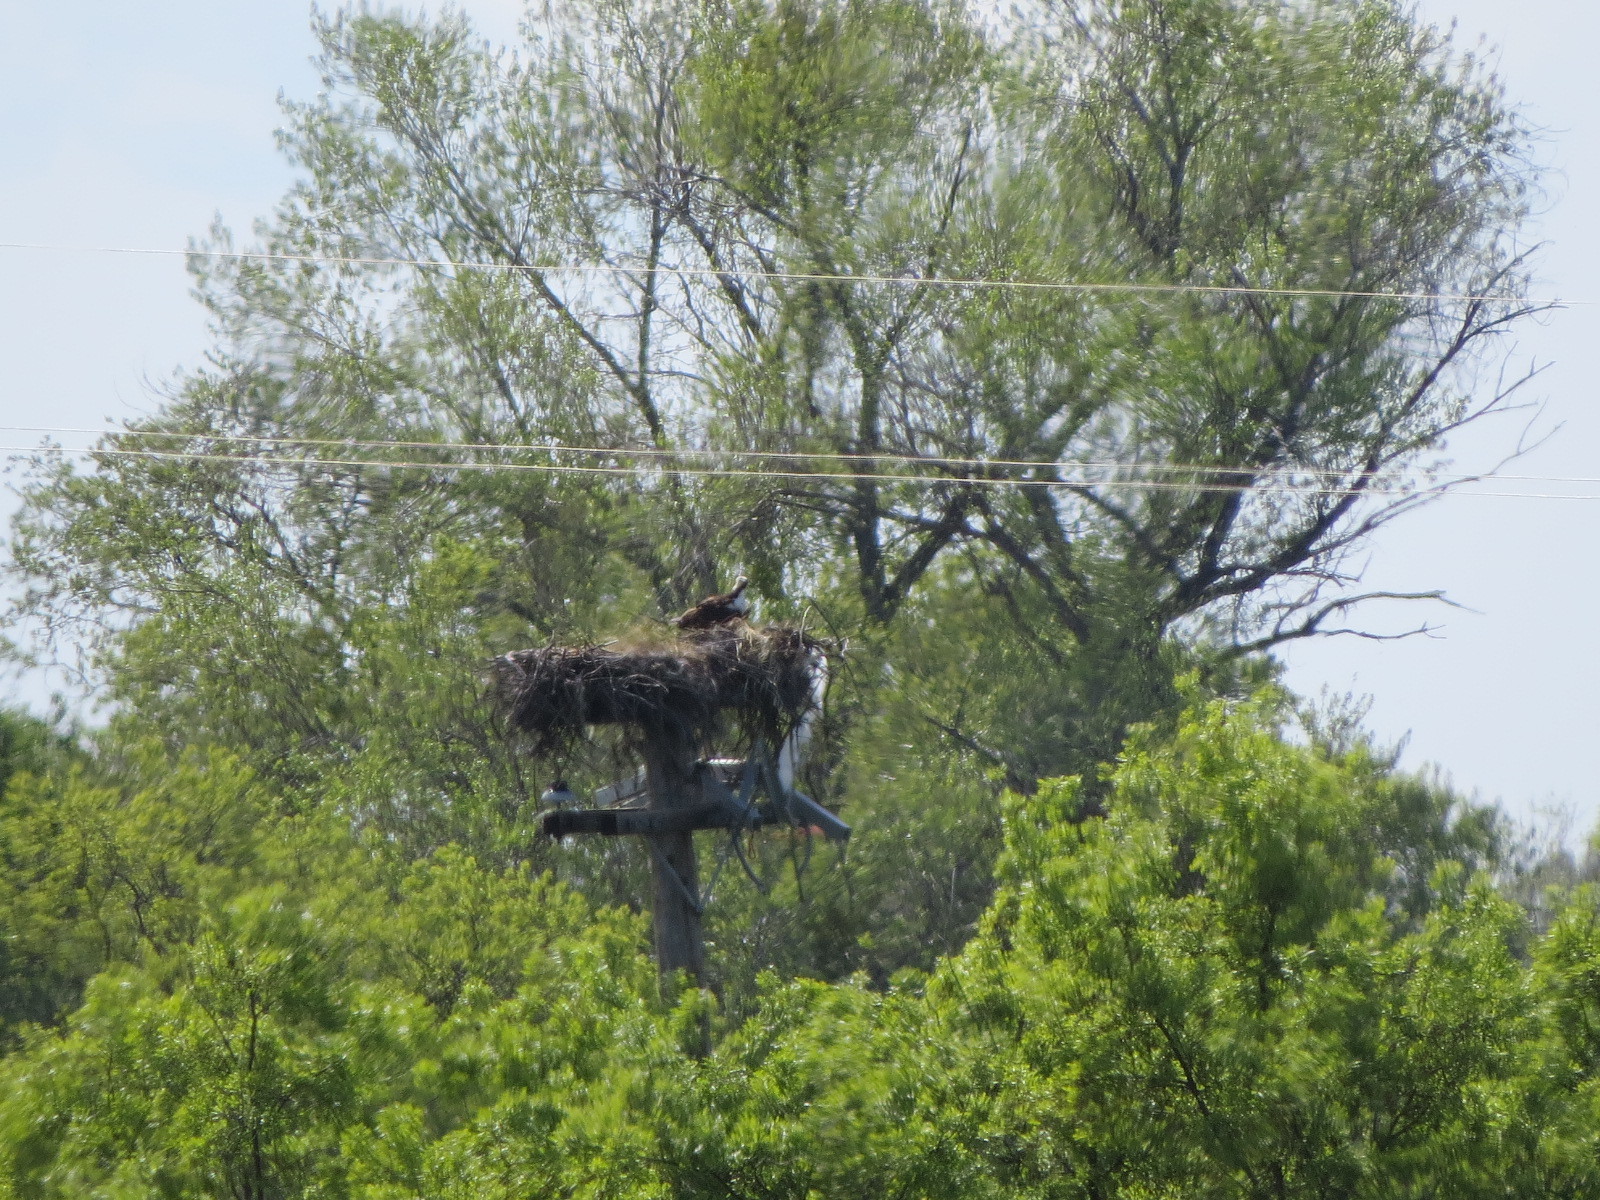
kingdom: Animalia
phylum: Chordata
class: Aves
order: Accipitriformes
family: Pandionidae
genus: Pandion
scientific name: Pandion haliaetus
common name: Osprey
